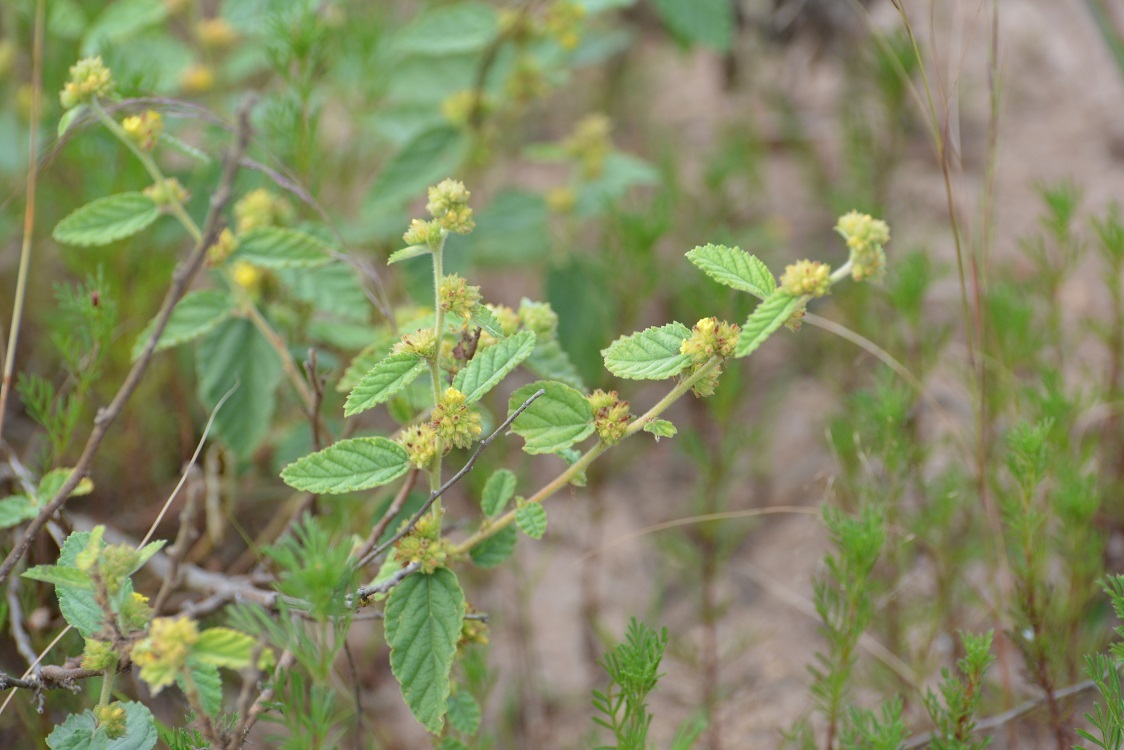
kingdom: Plantae
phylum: Tracheophyta
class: Magnoliopsida
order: Malvales
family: Malvaceae
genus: Waltheria
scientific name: Waltheria indica
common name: Leather-coat
